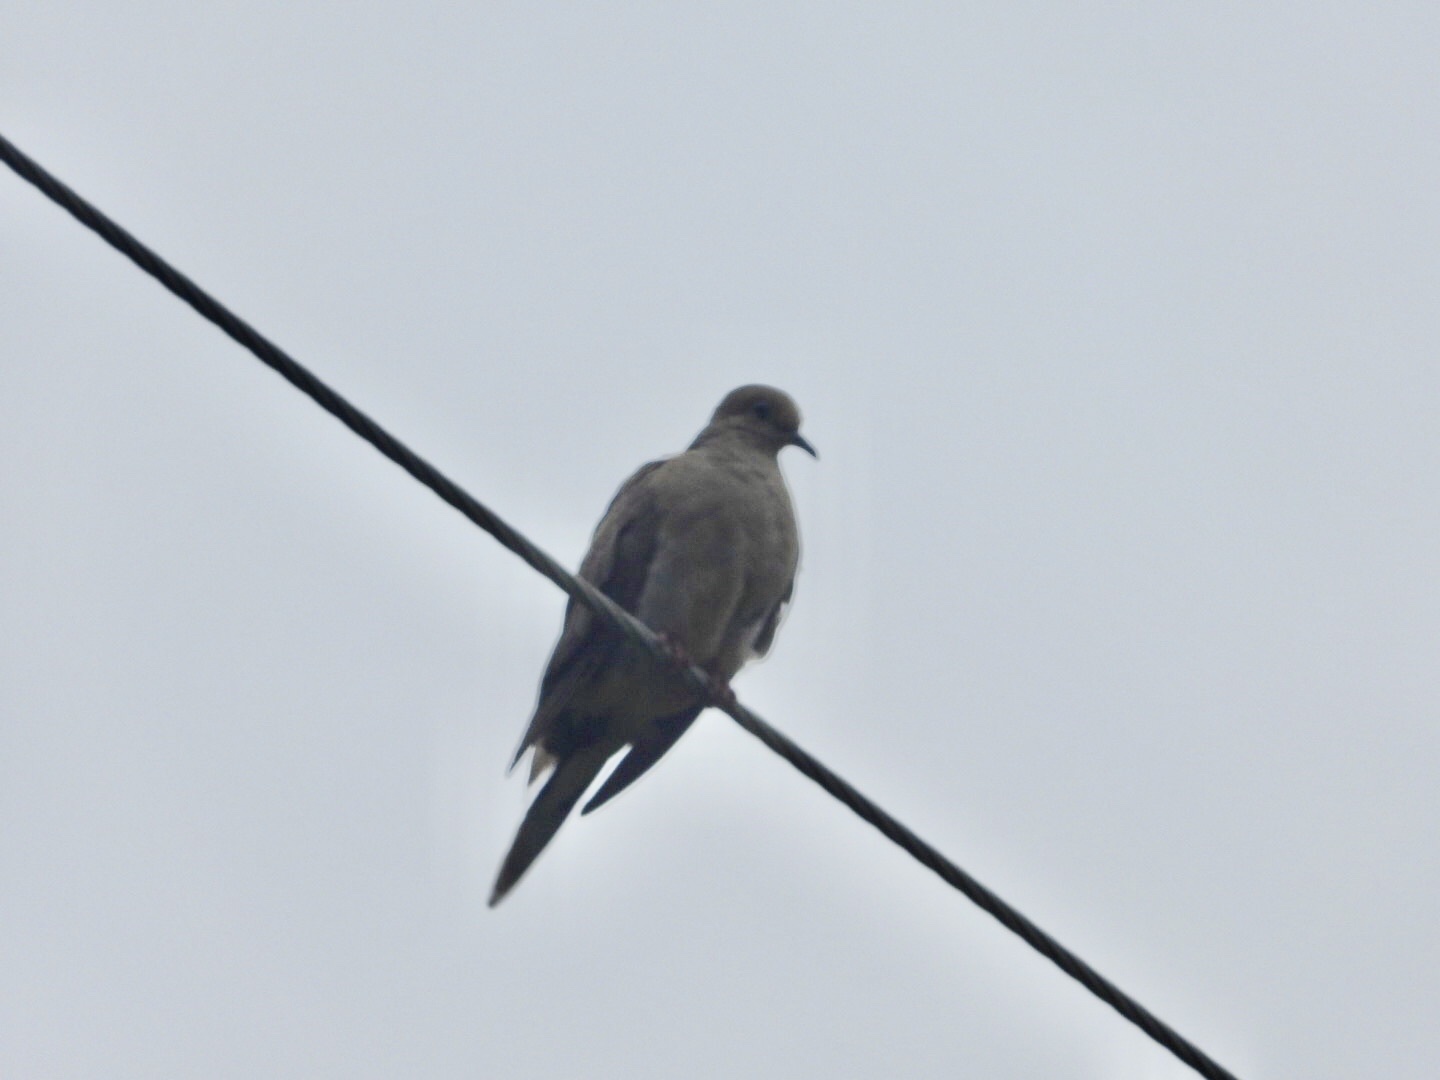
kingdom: Animalia
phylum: Chordata
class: Aves
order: Columbiformes
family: Columbidae
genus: Zenaida
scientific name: Zenaida macroura
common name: Mourning dove
